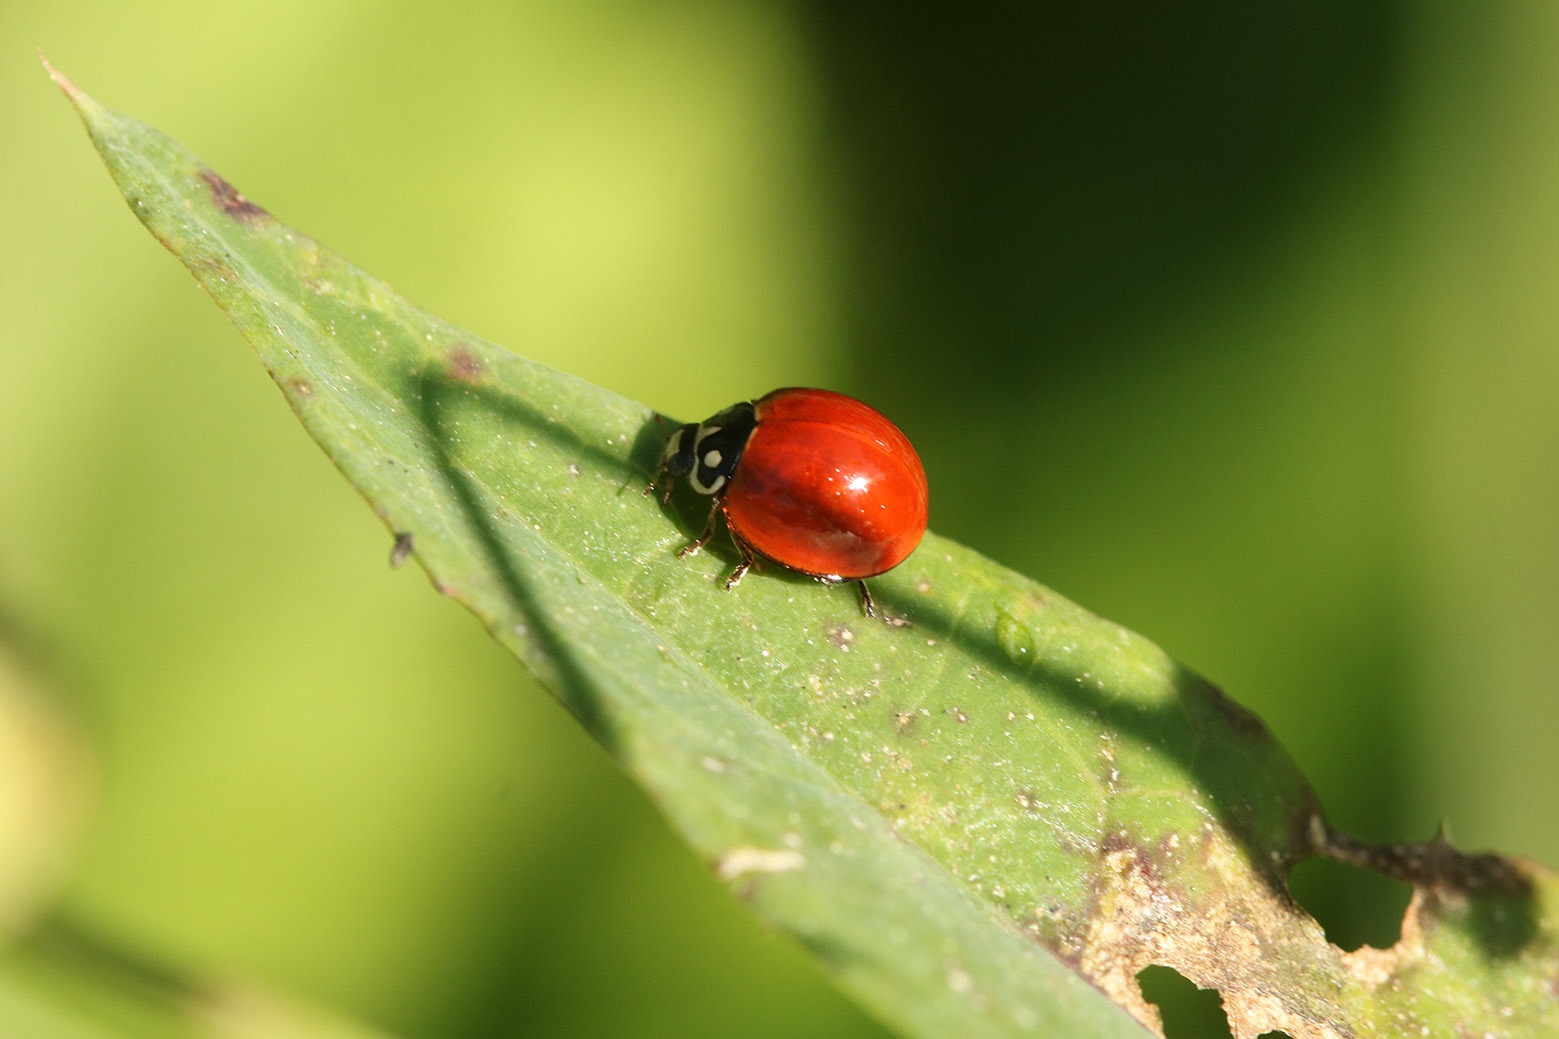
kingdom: Animalia
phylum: Arthropoda
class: Insecta
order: Coleoptera
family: Coccinellidae
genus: Cycloneda
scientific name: Cycloneda sanguinea
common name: Ladybird beetle
